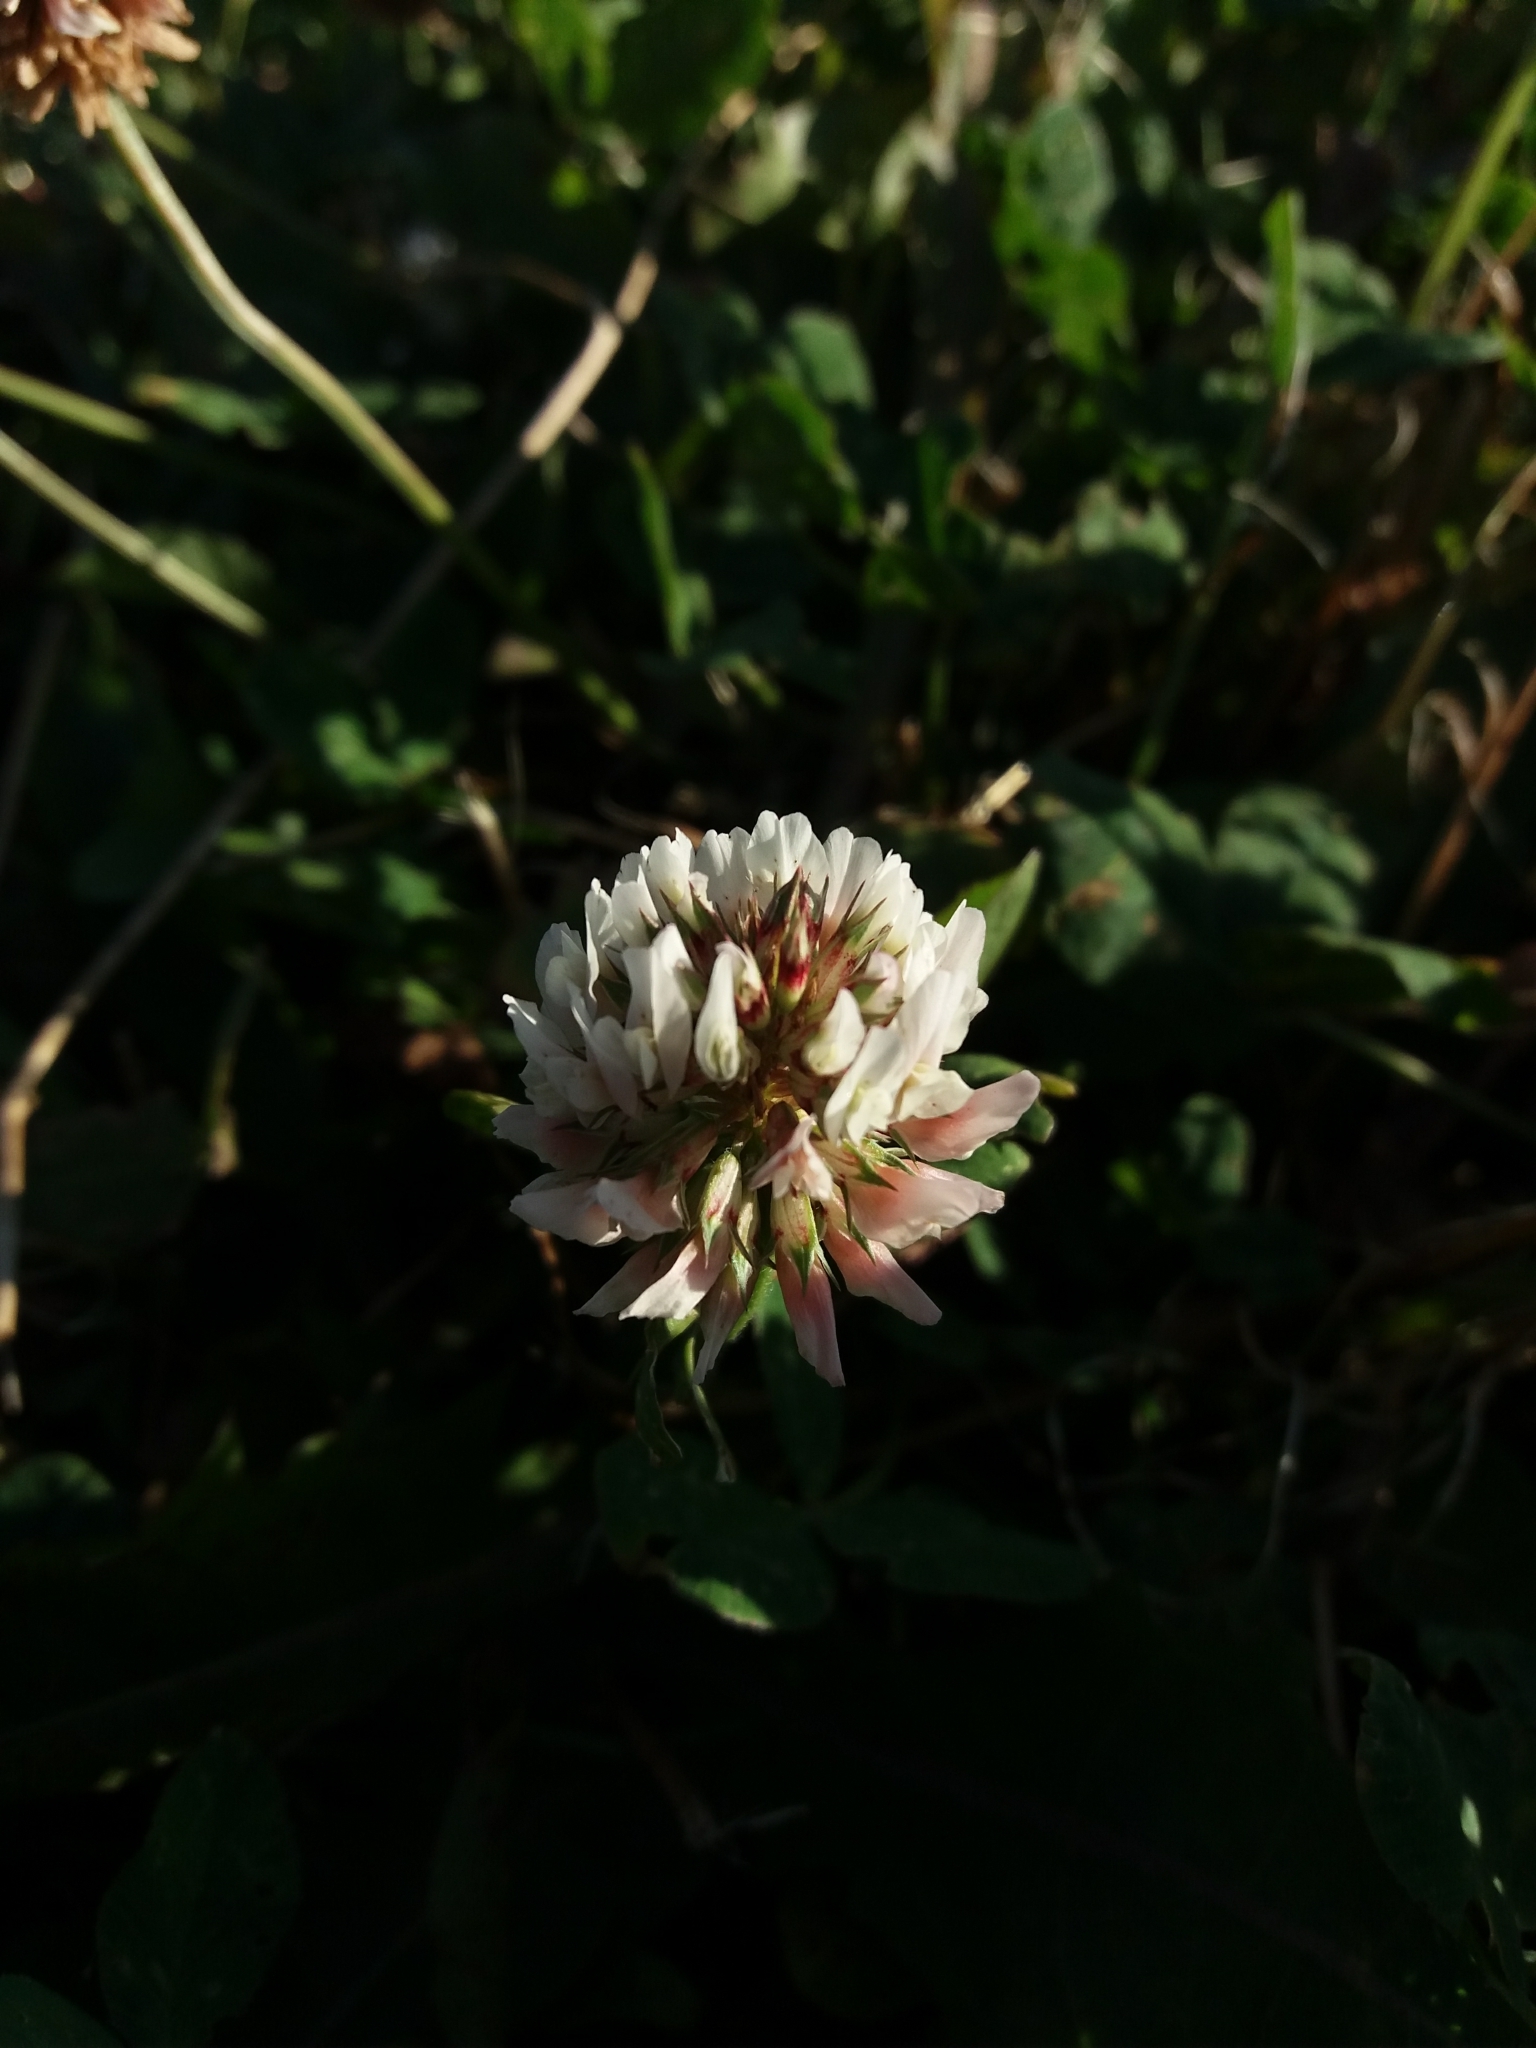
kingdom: Plantae
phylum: Tracheophyta
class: Magnoliopsida
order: Fabales
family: Fabaceae
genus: Trifolium
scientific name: Trifolium repens
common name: White clover
